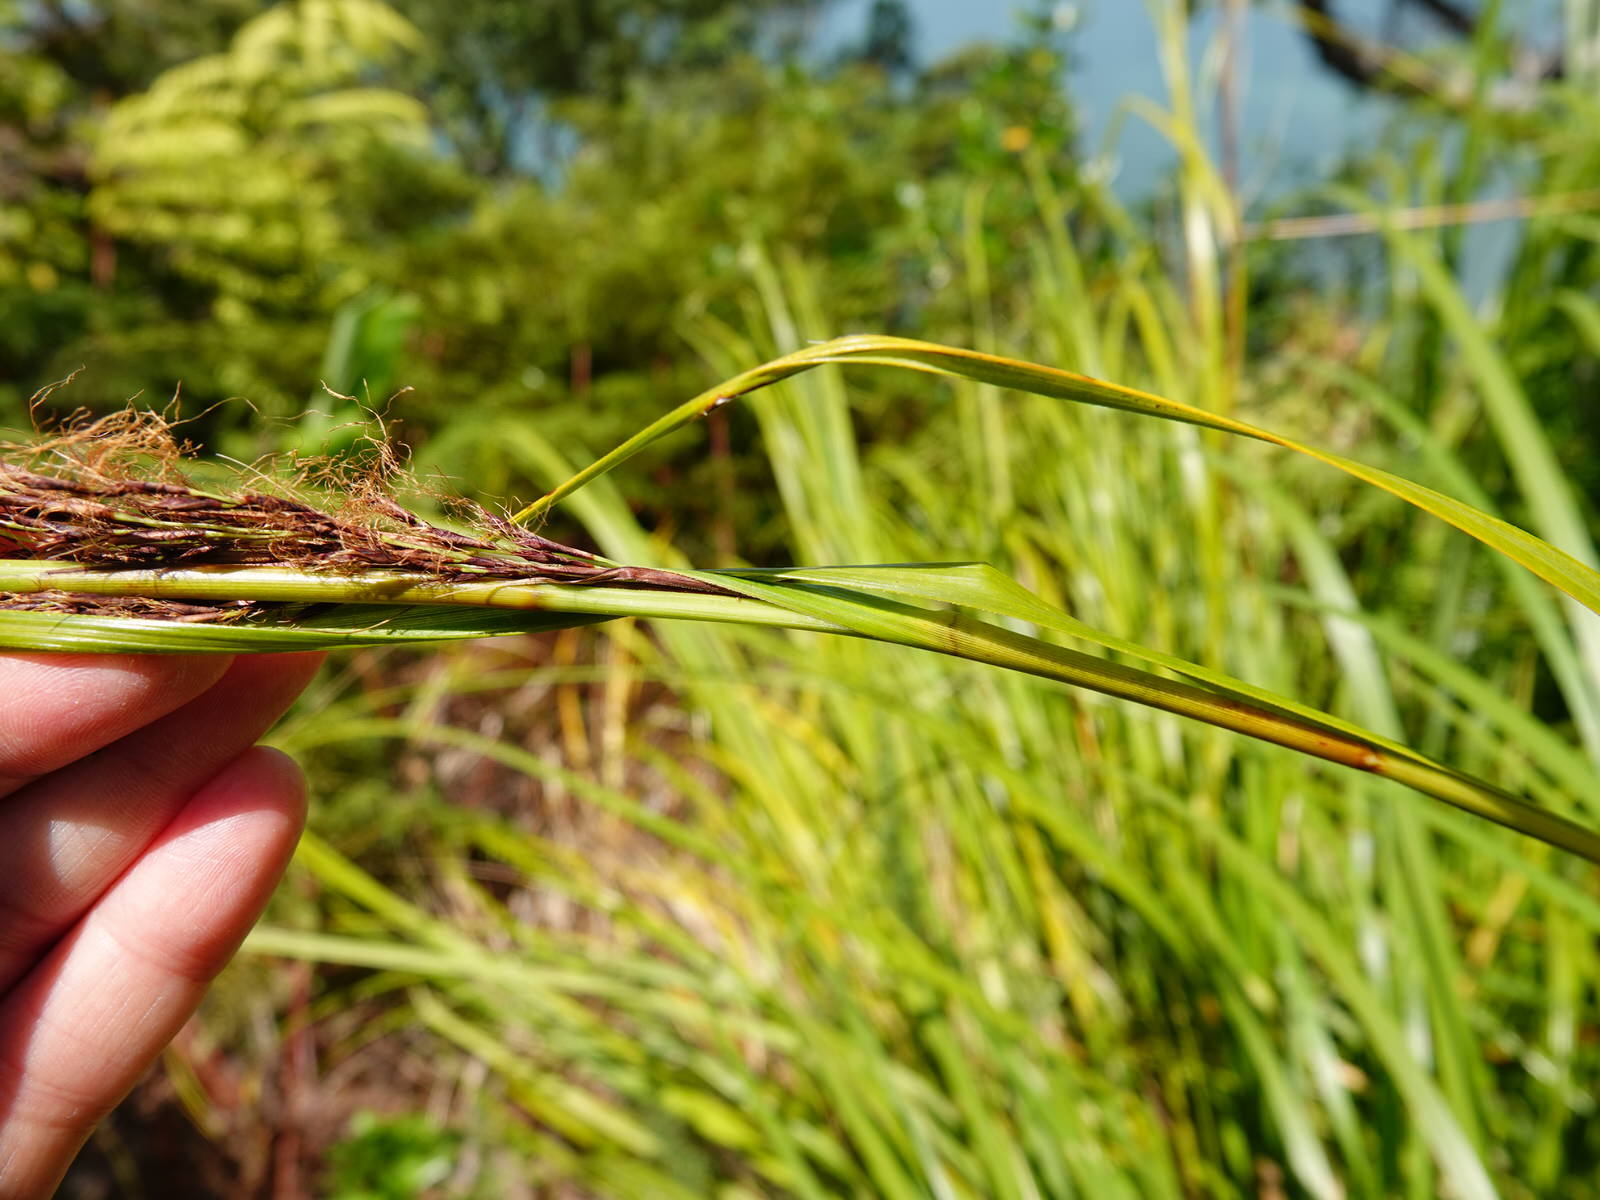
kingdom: Plantae
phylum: Tracheophyta
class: Liliopsida
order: Poales
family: Cyperaceae
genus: Gahnia
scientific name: Gahnia lacera
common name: Sawsedge
